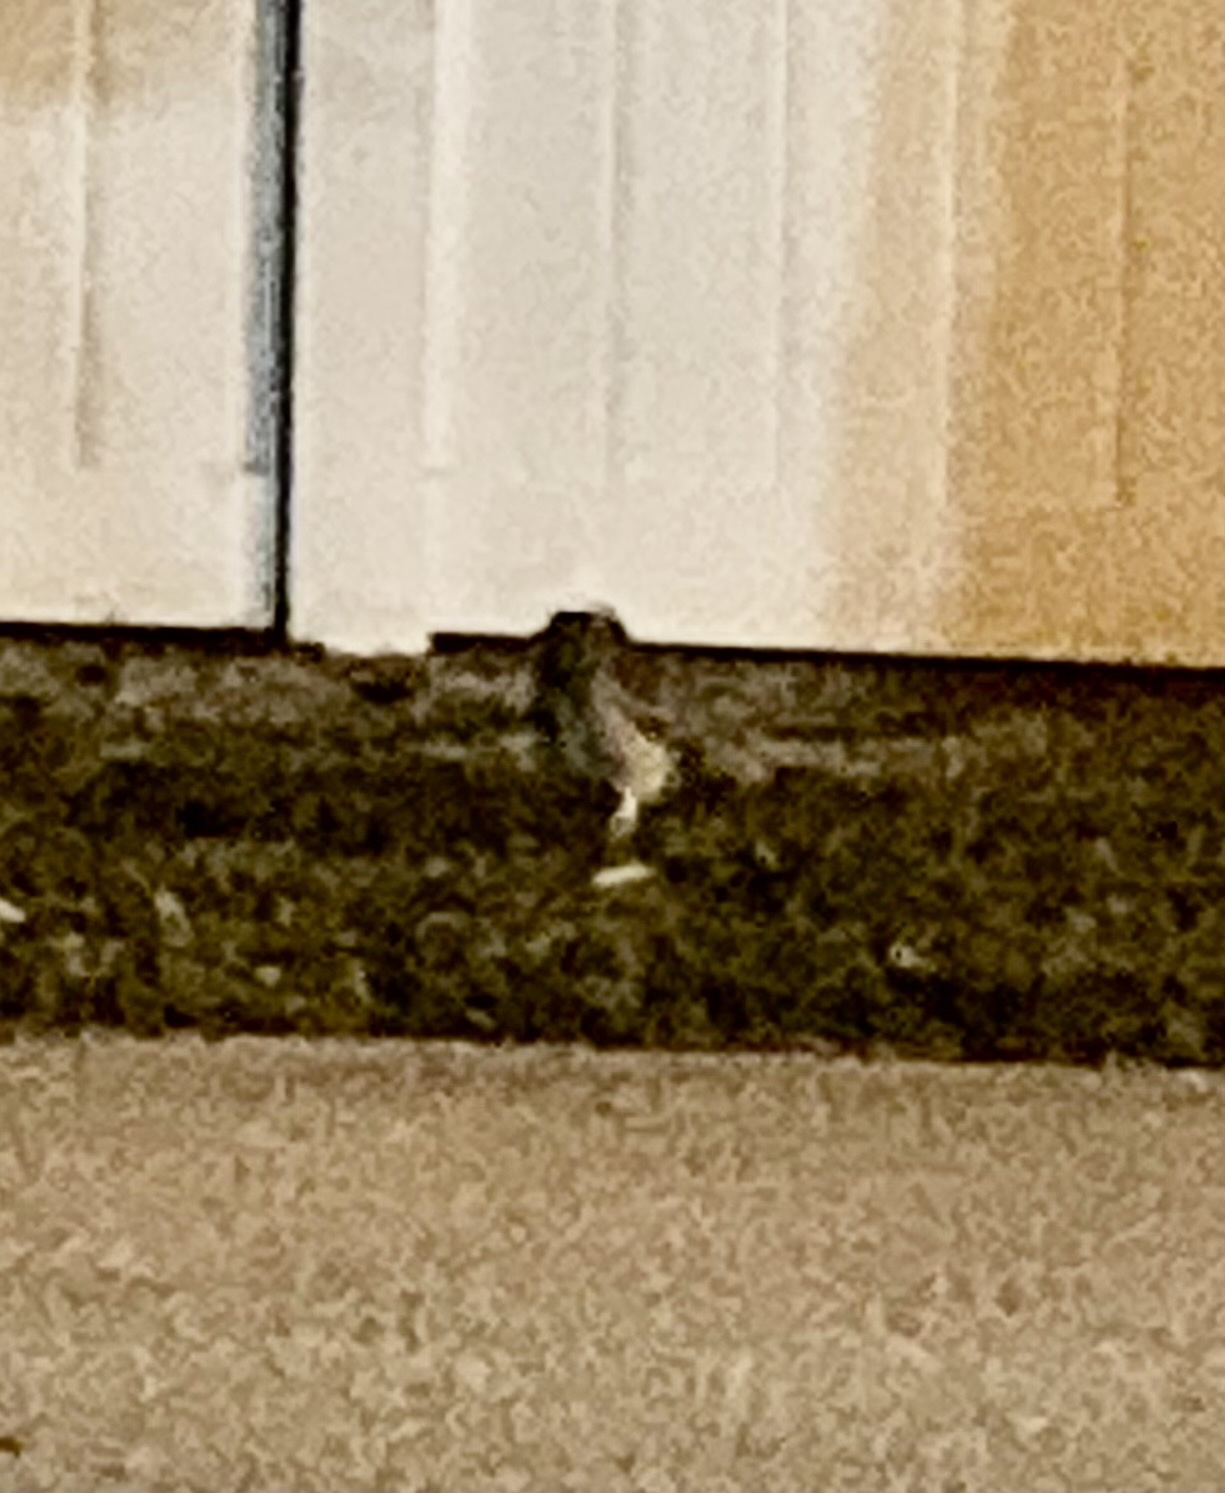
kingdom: Animalia
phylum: Chordata
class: Aves
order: Strigiformes
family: Strigidae
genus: Athene
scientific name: Athene cunicularia
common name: Burrowing owl
